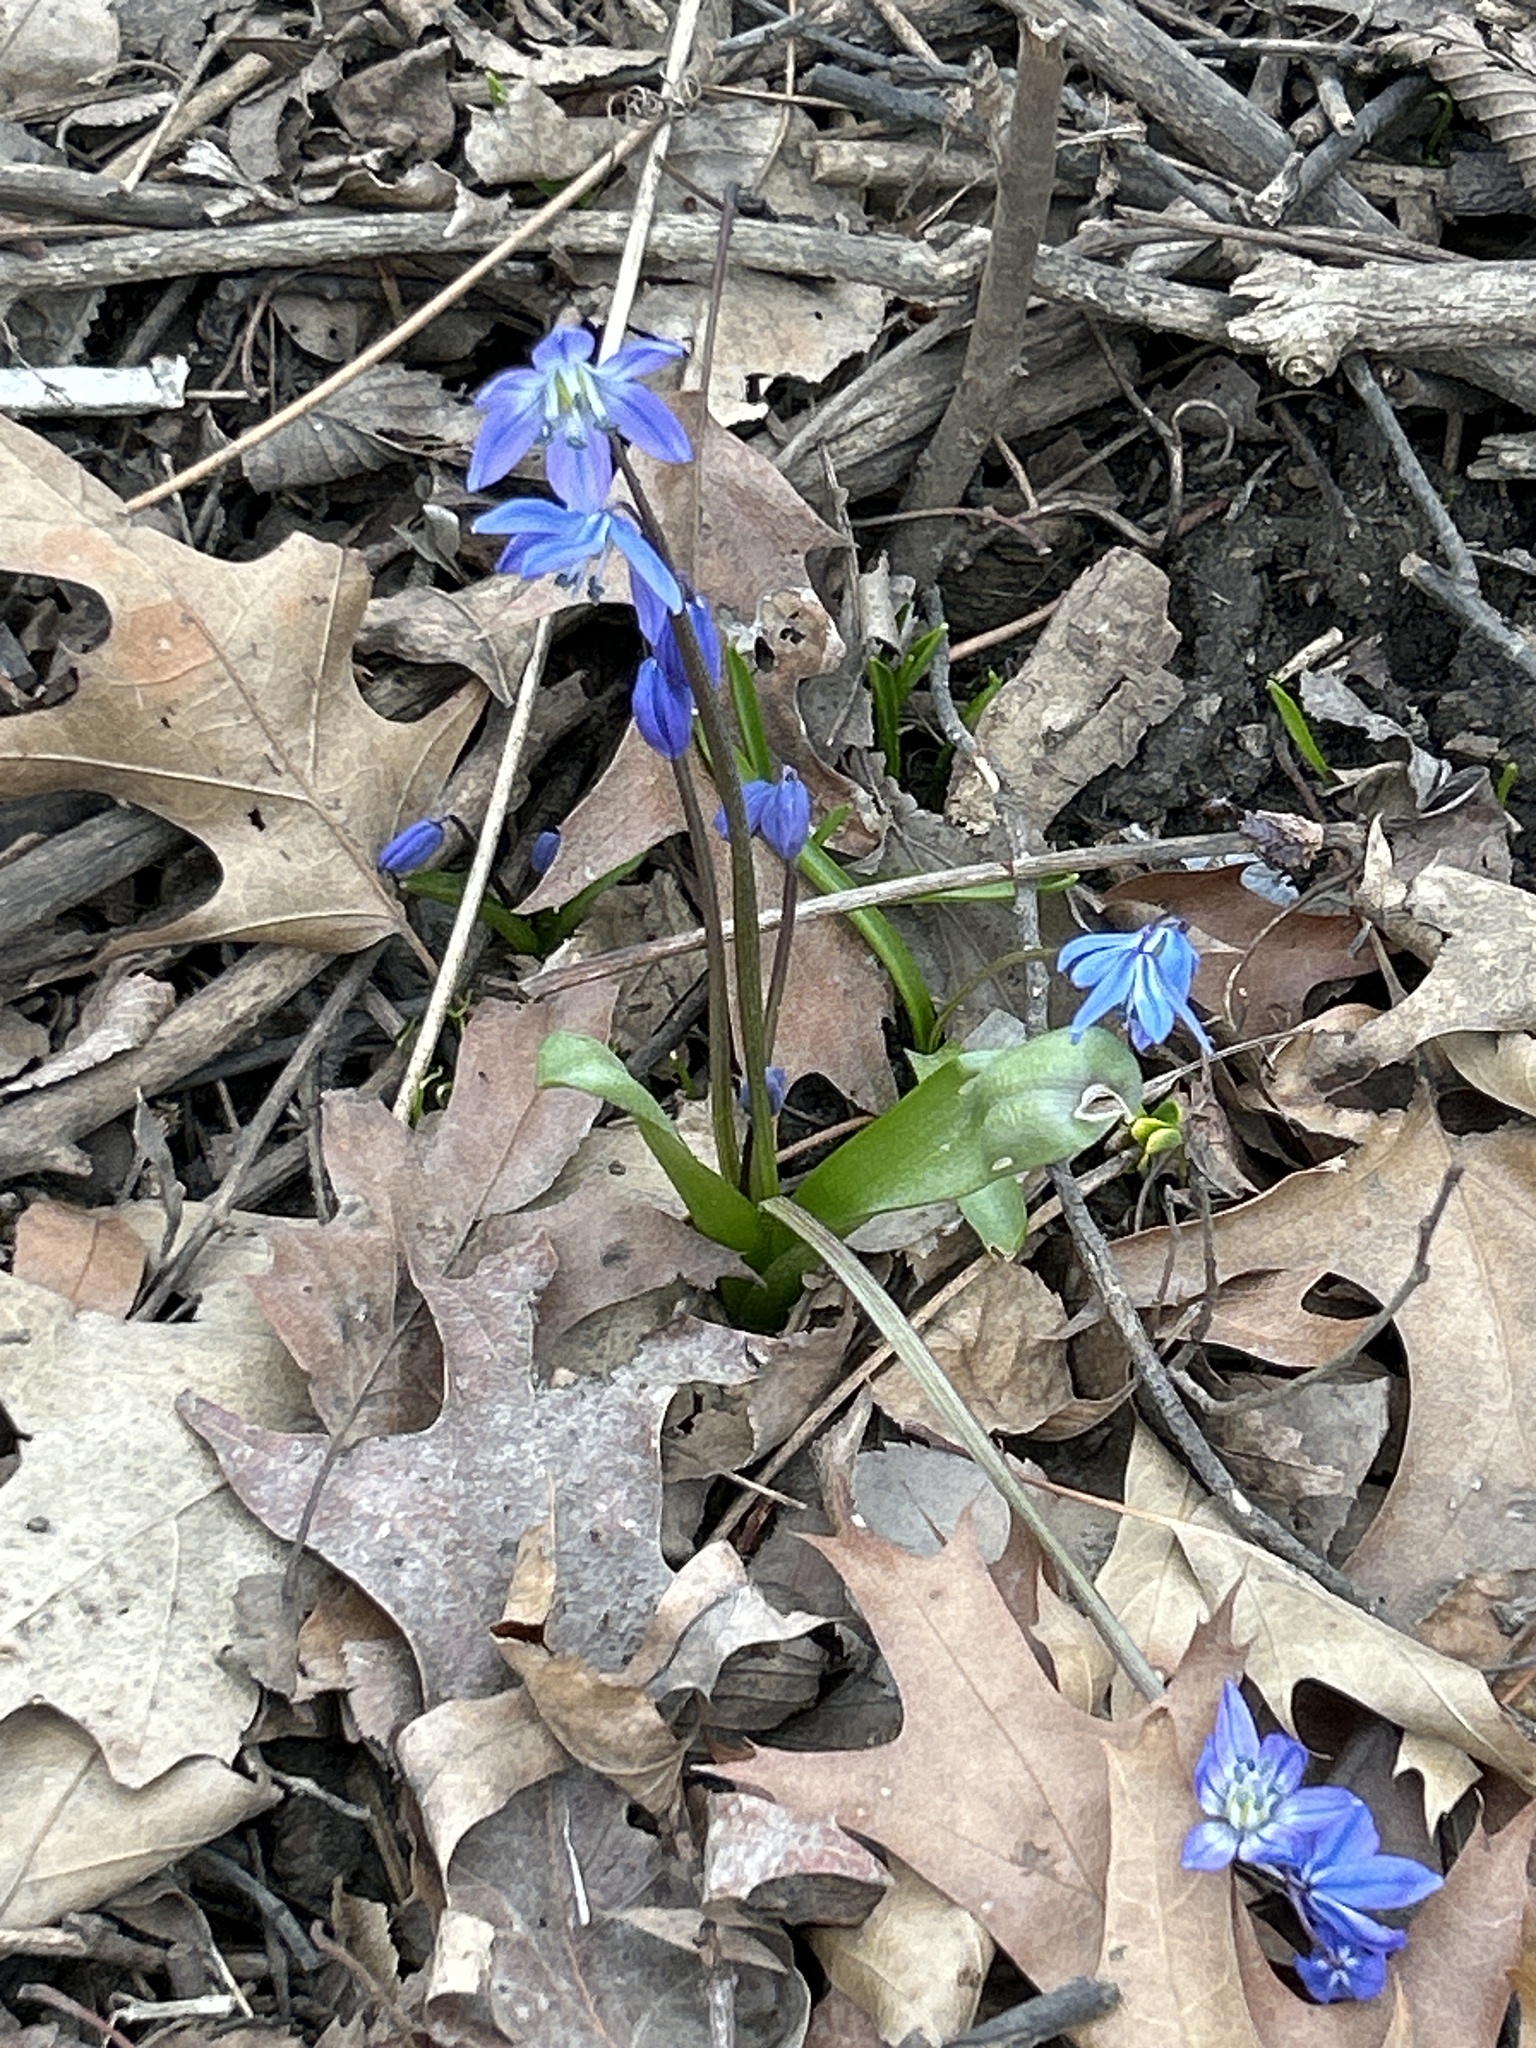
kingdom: Plantae
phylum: Tracheophyta
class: Liliopsida
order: Asparagales
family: Asparagaceae
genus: Scilla
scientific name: Scilla siberica
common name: Siberian squill
